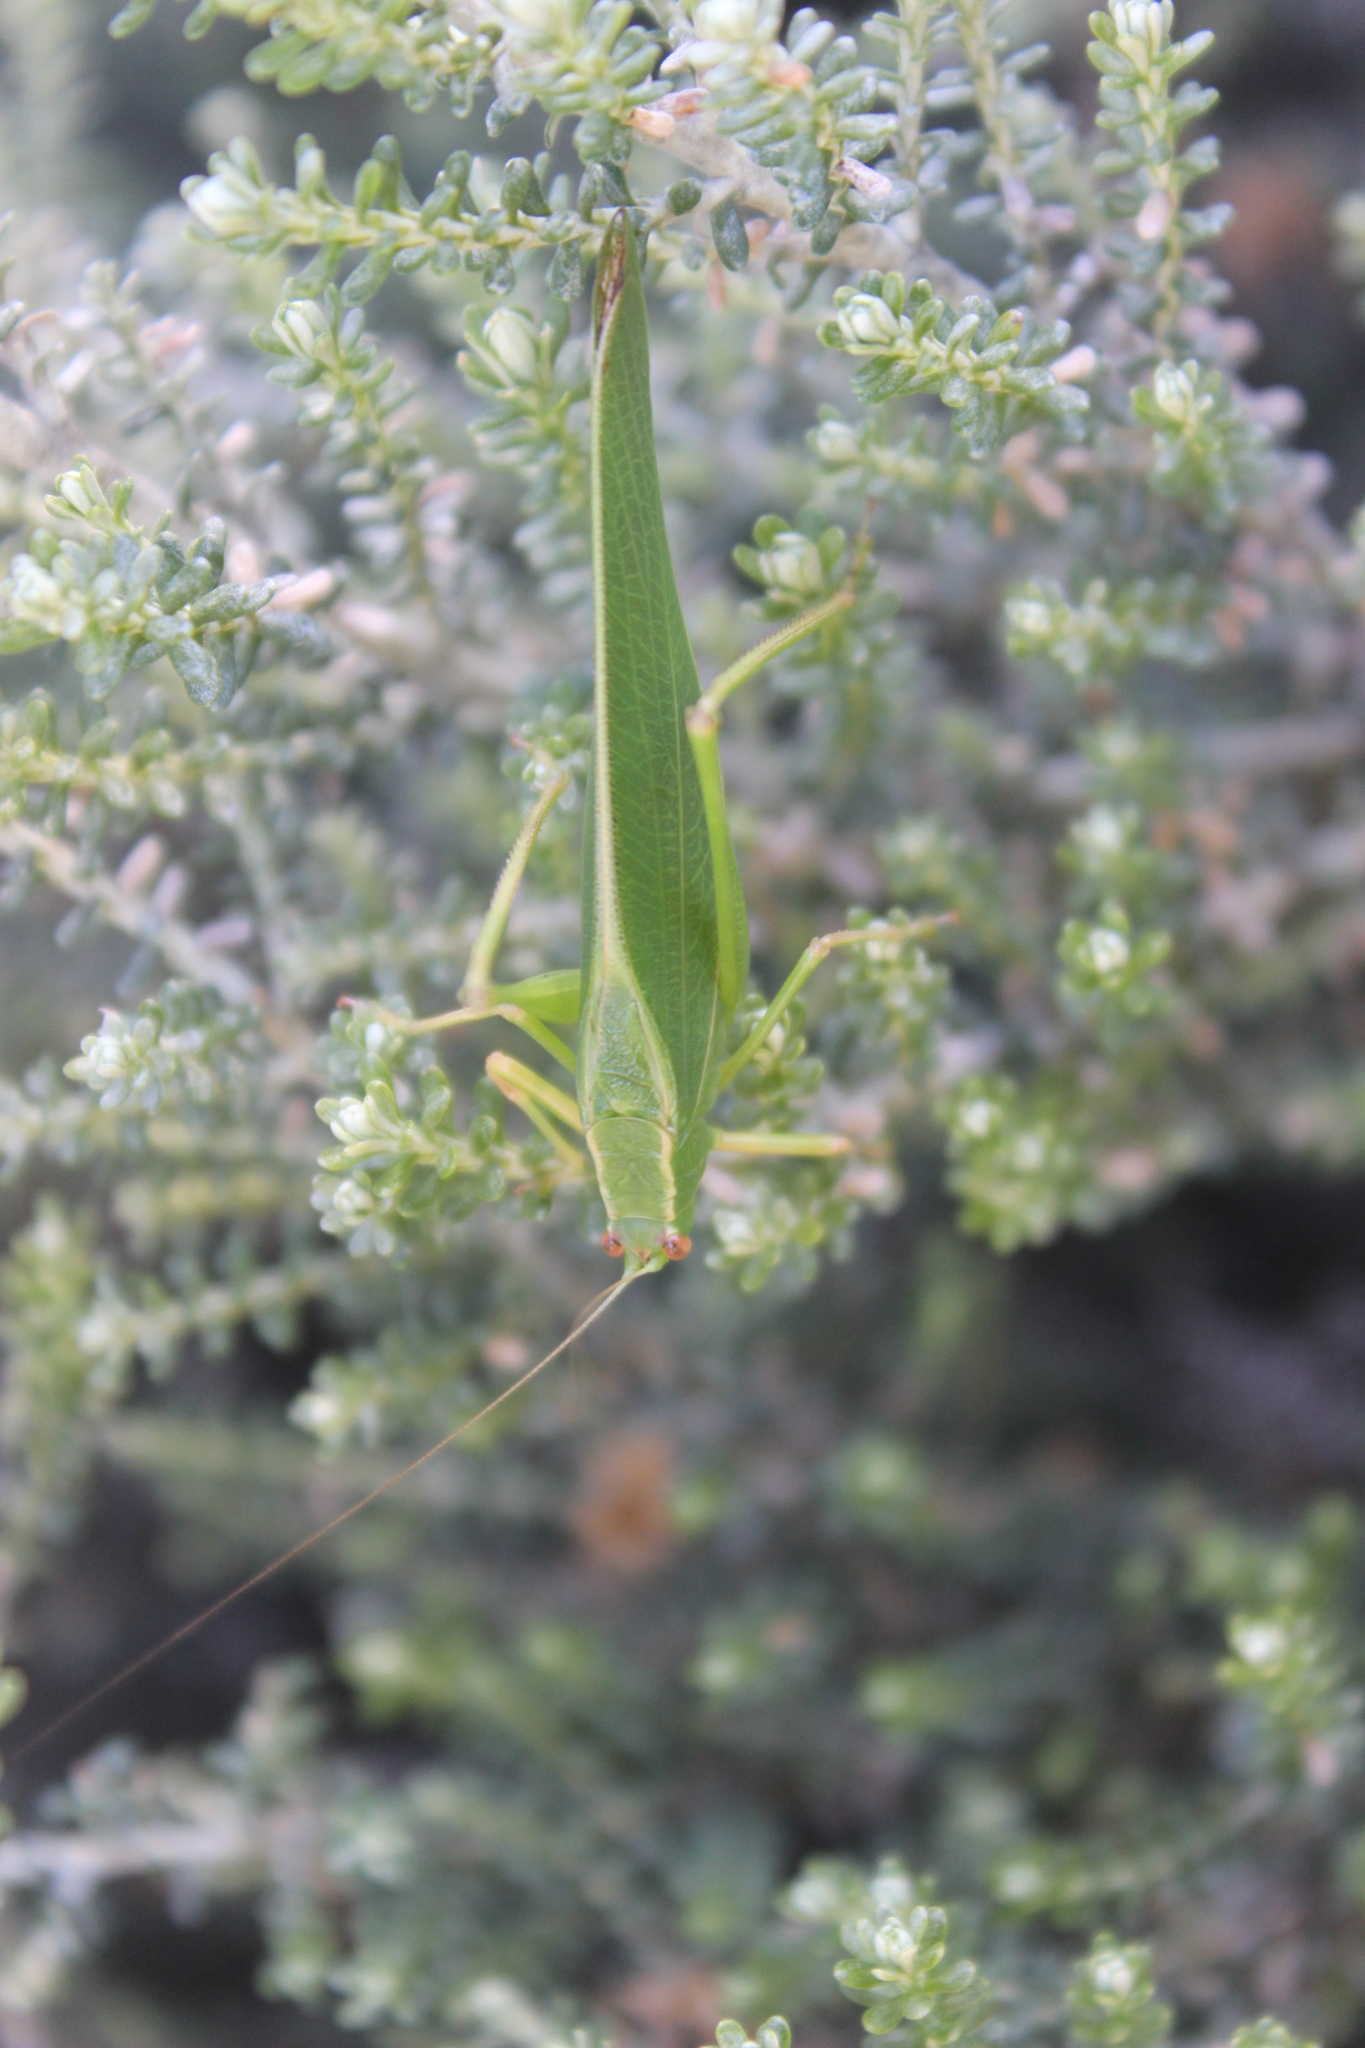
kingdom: Animalia
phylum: Arthropoda
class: Insecta
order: Orthoptera
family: Tettigoniidae
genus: Caedicia
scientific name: Caedicia simplex
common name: Common garden katydid
